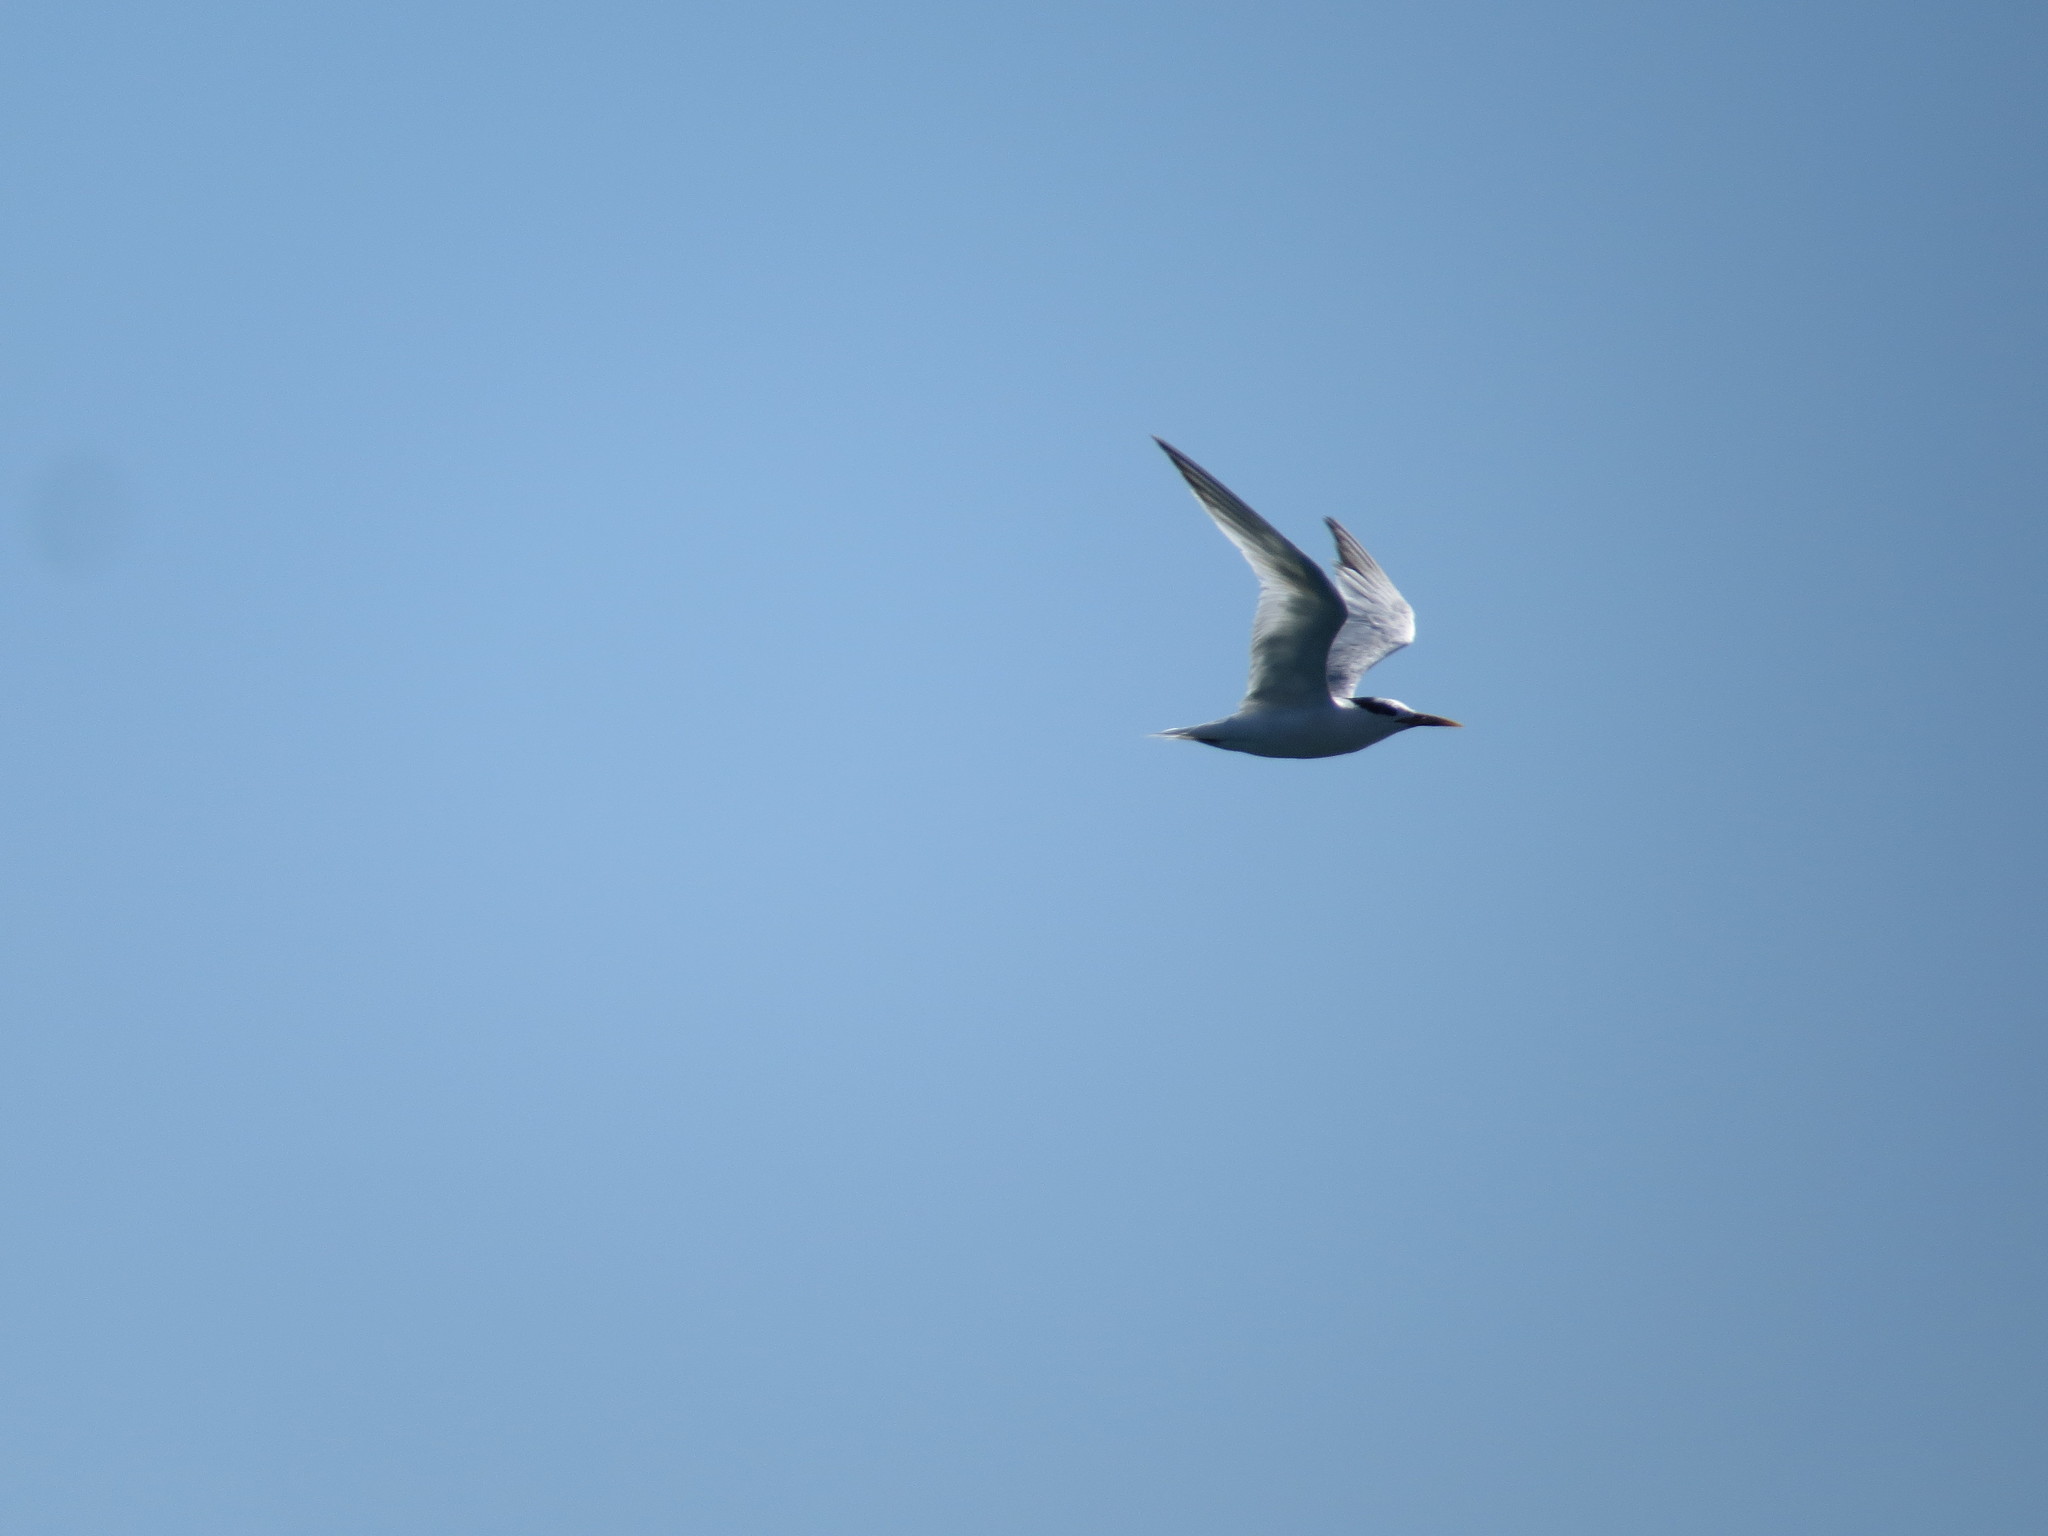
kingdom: Animalia
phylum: Chordata
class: Aves
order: Charadriiformes
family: Laridae
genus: Thalasseus
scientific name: Thalasseus maximus
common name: Royal tern
